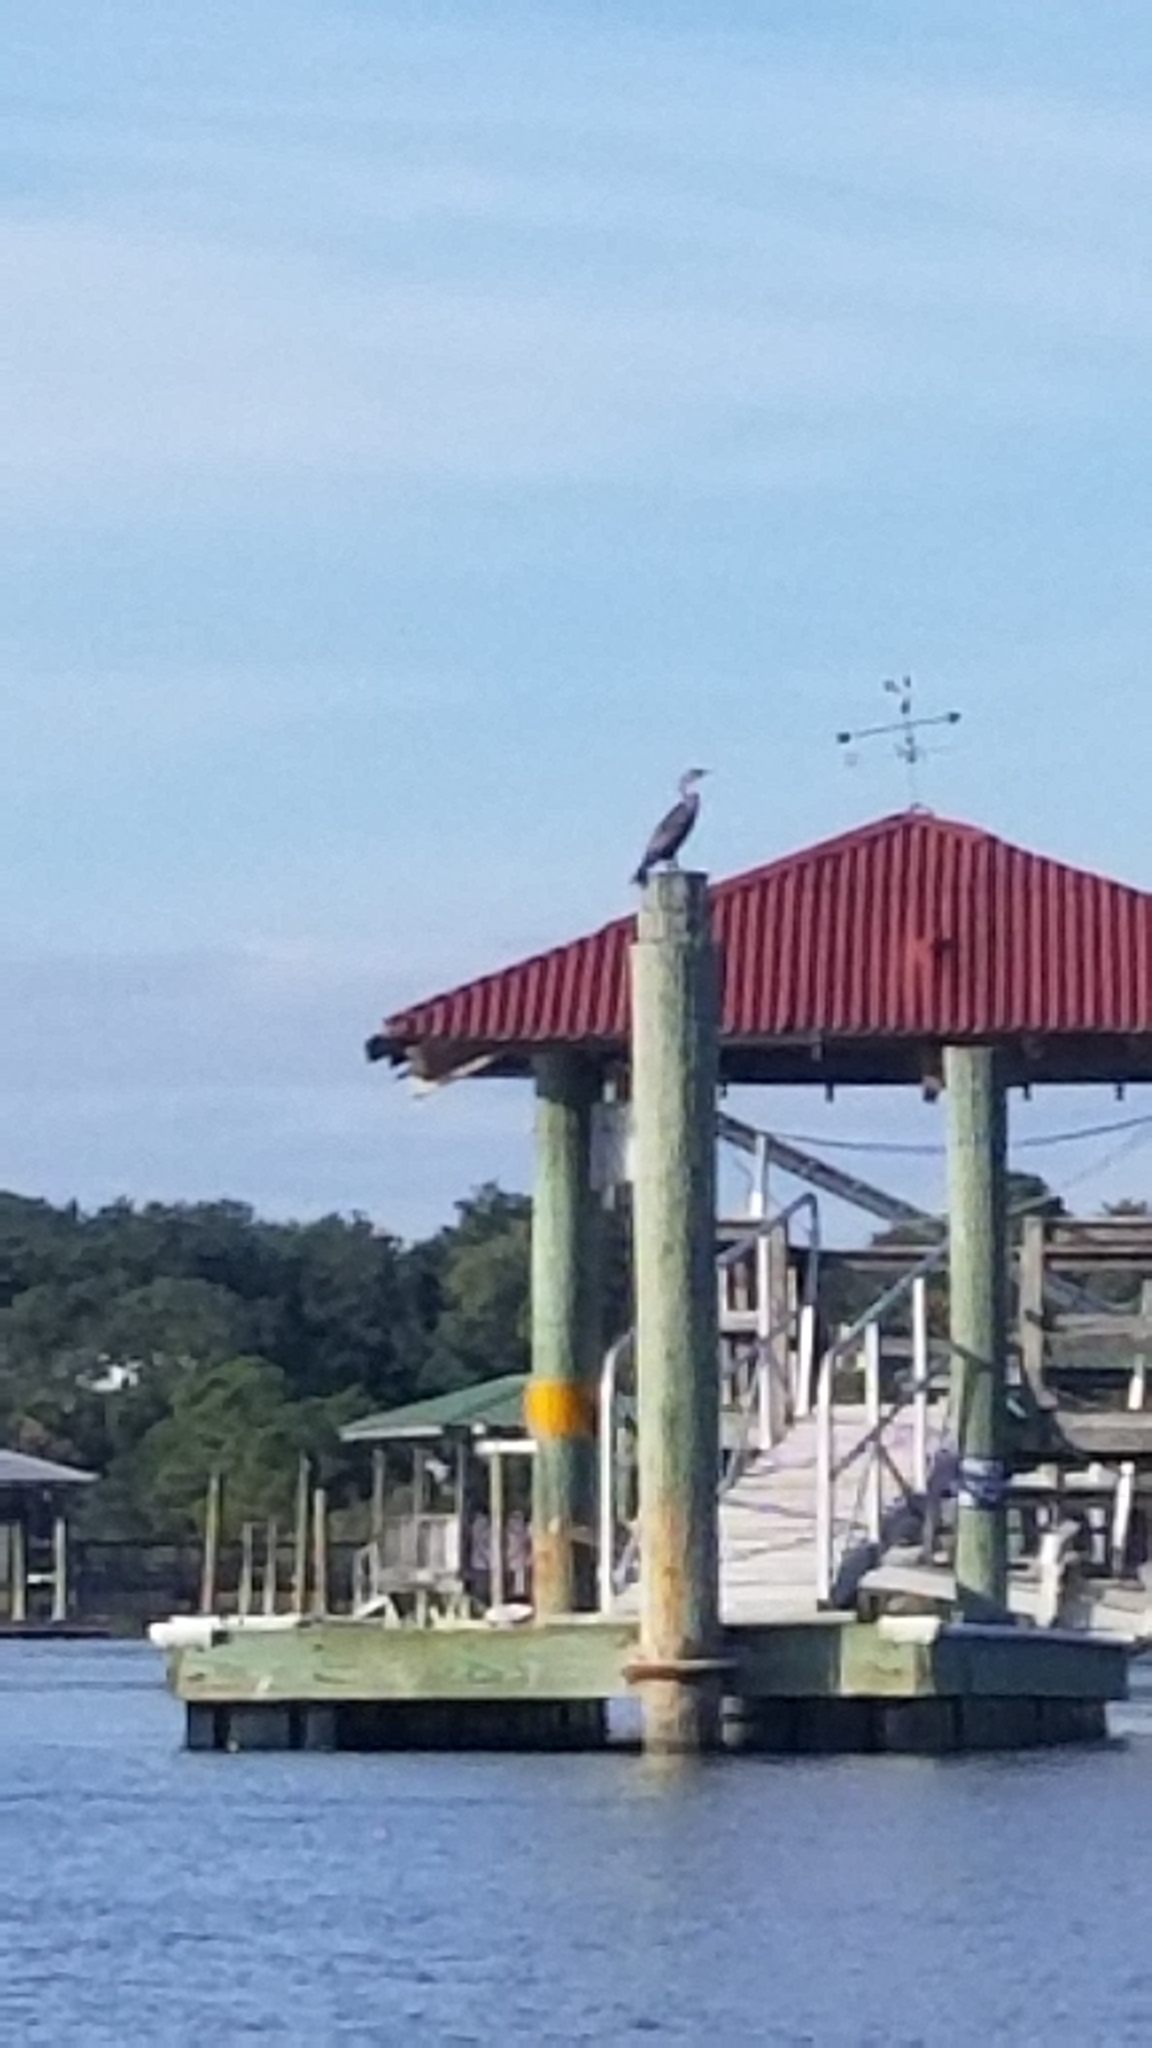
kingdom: Animalia
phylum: Chordata
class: Aves
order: Suliformes
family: Phalacrocoracidae
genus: Phalacrocorax
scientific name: Phalacrocorax auritus
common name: Double-crested cormorant
